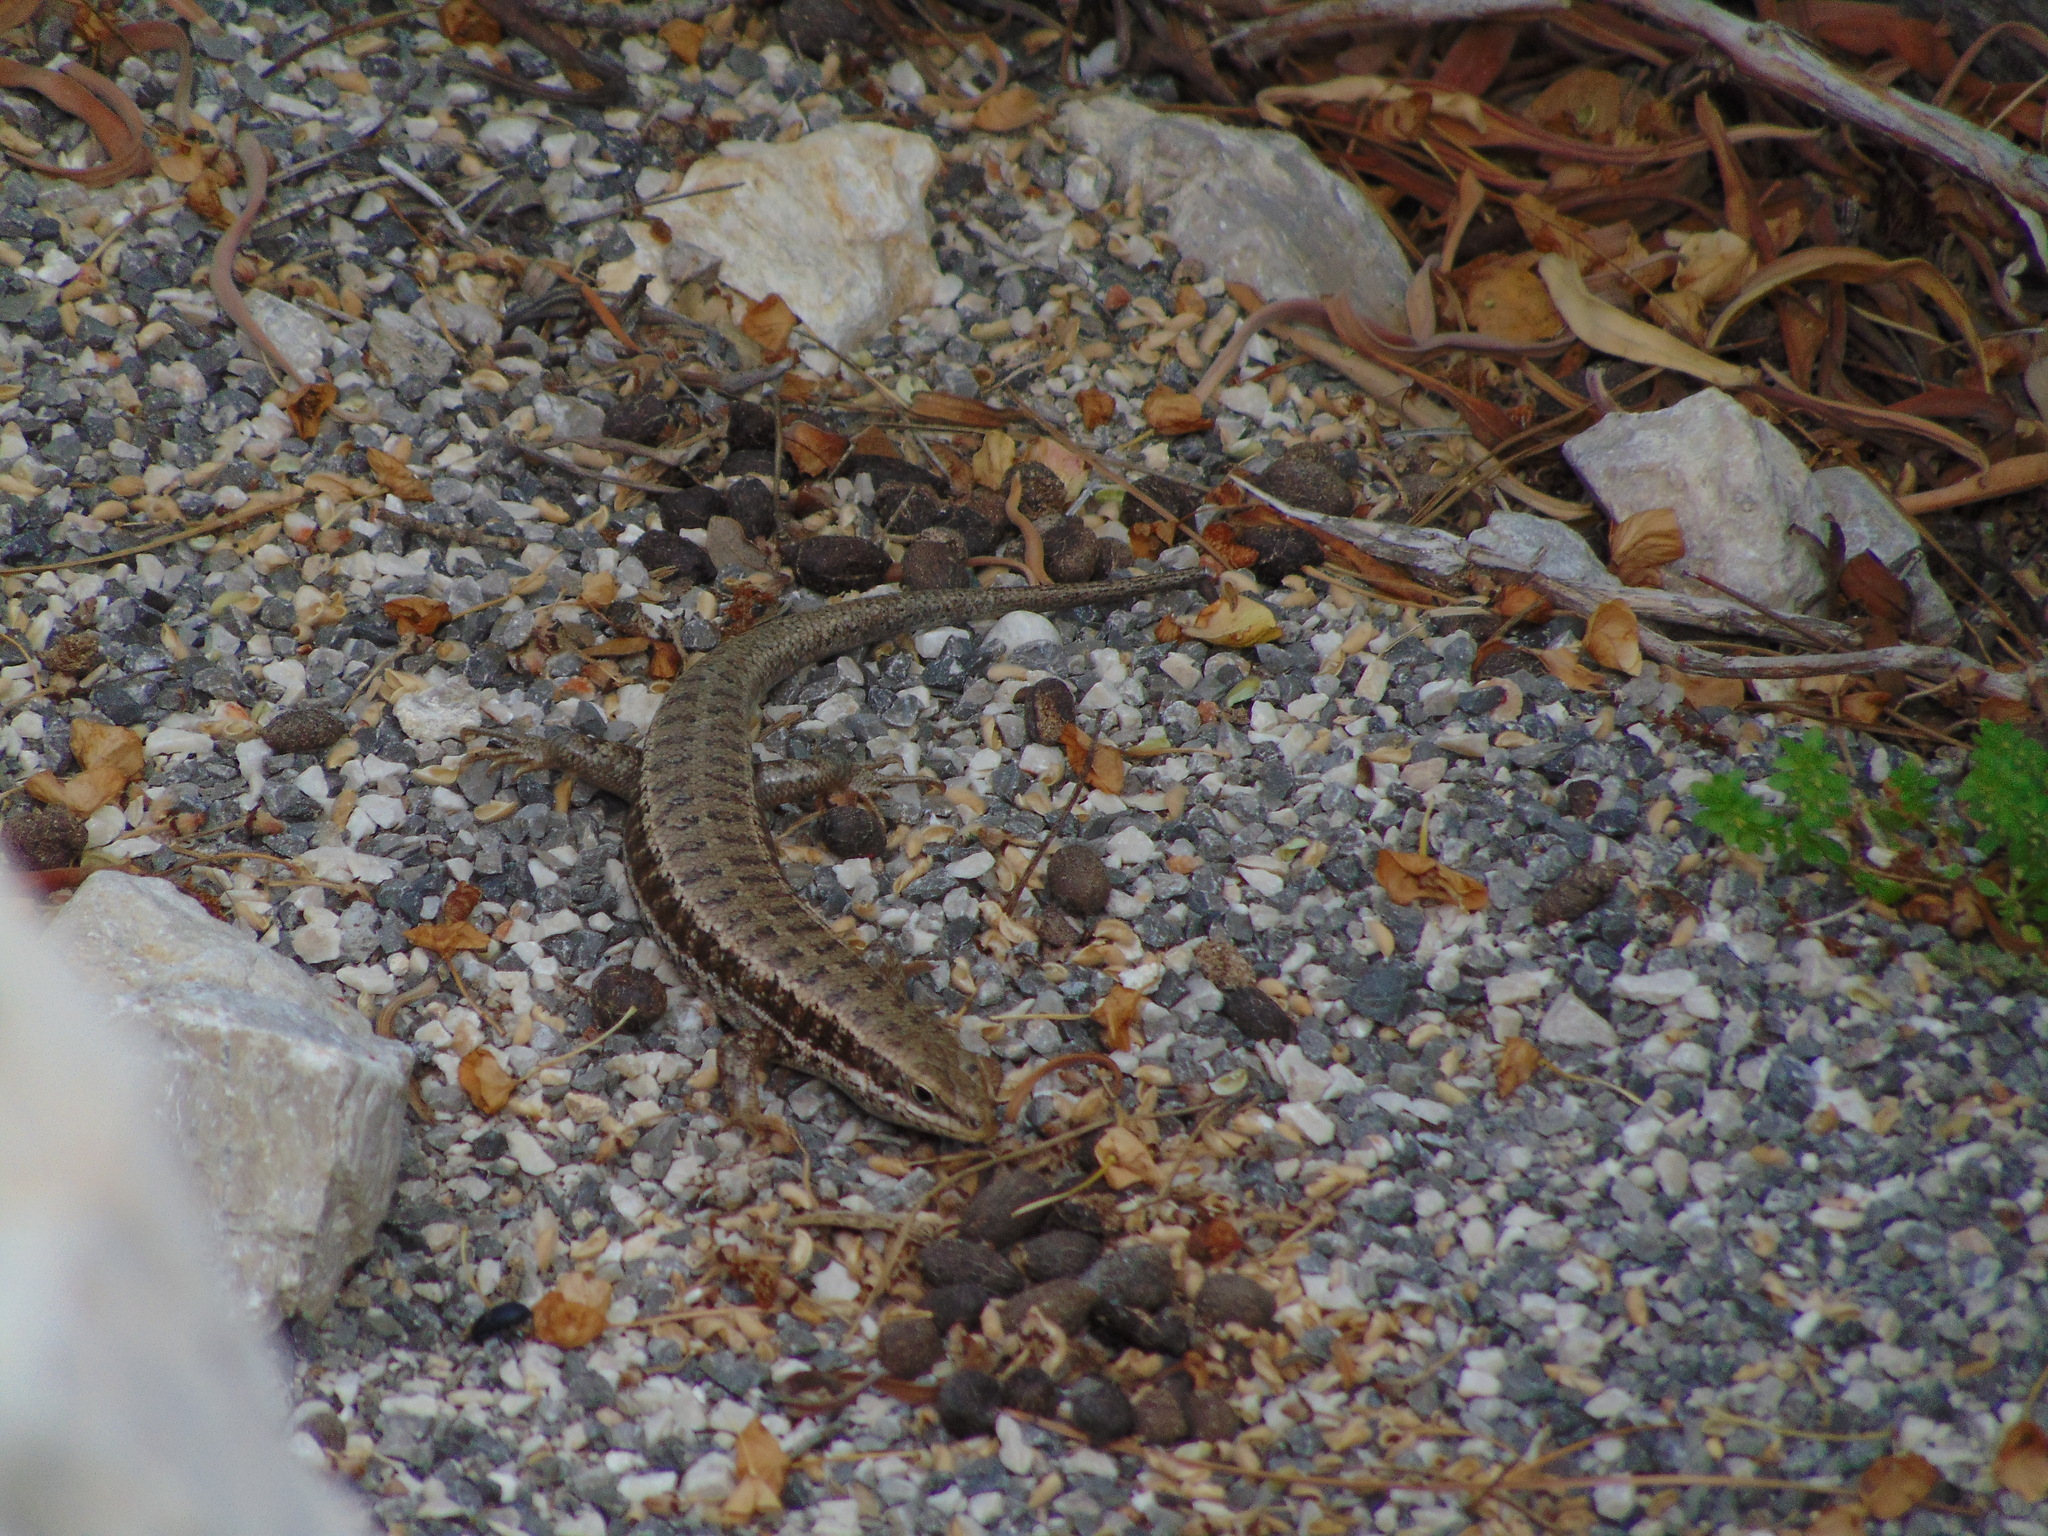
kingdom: Animalia
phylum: Chordata
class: Squamata
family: Scincidae
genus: Heremites
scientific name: Heremites auratus
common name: Golden grass mabuya
